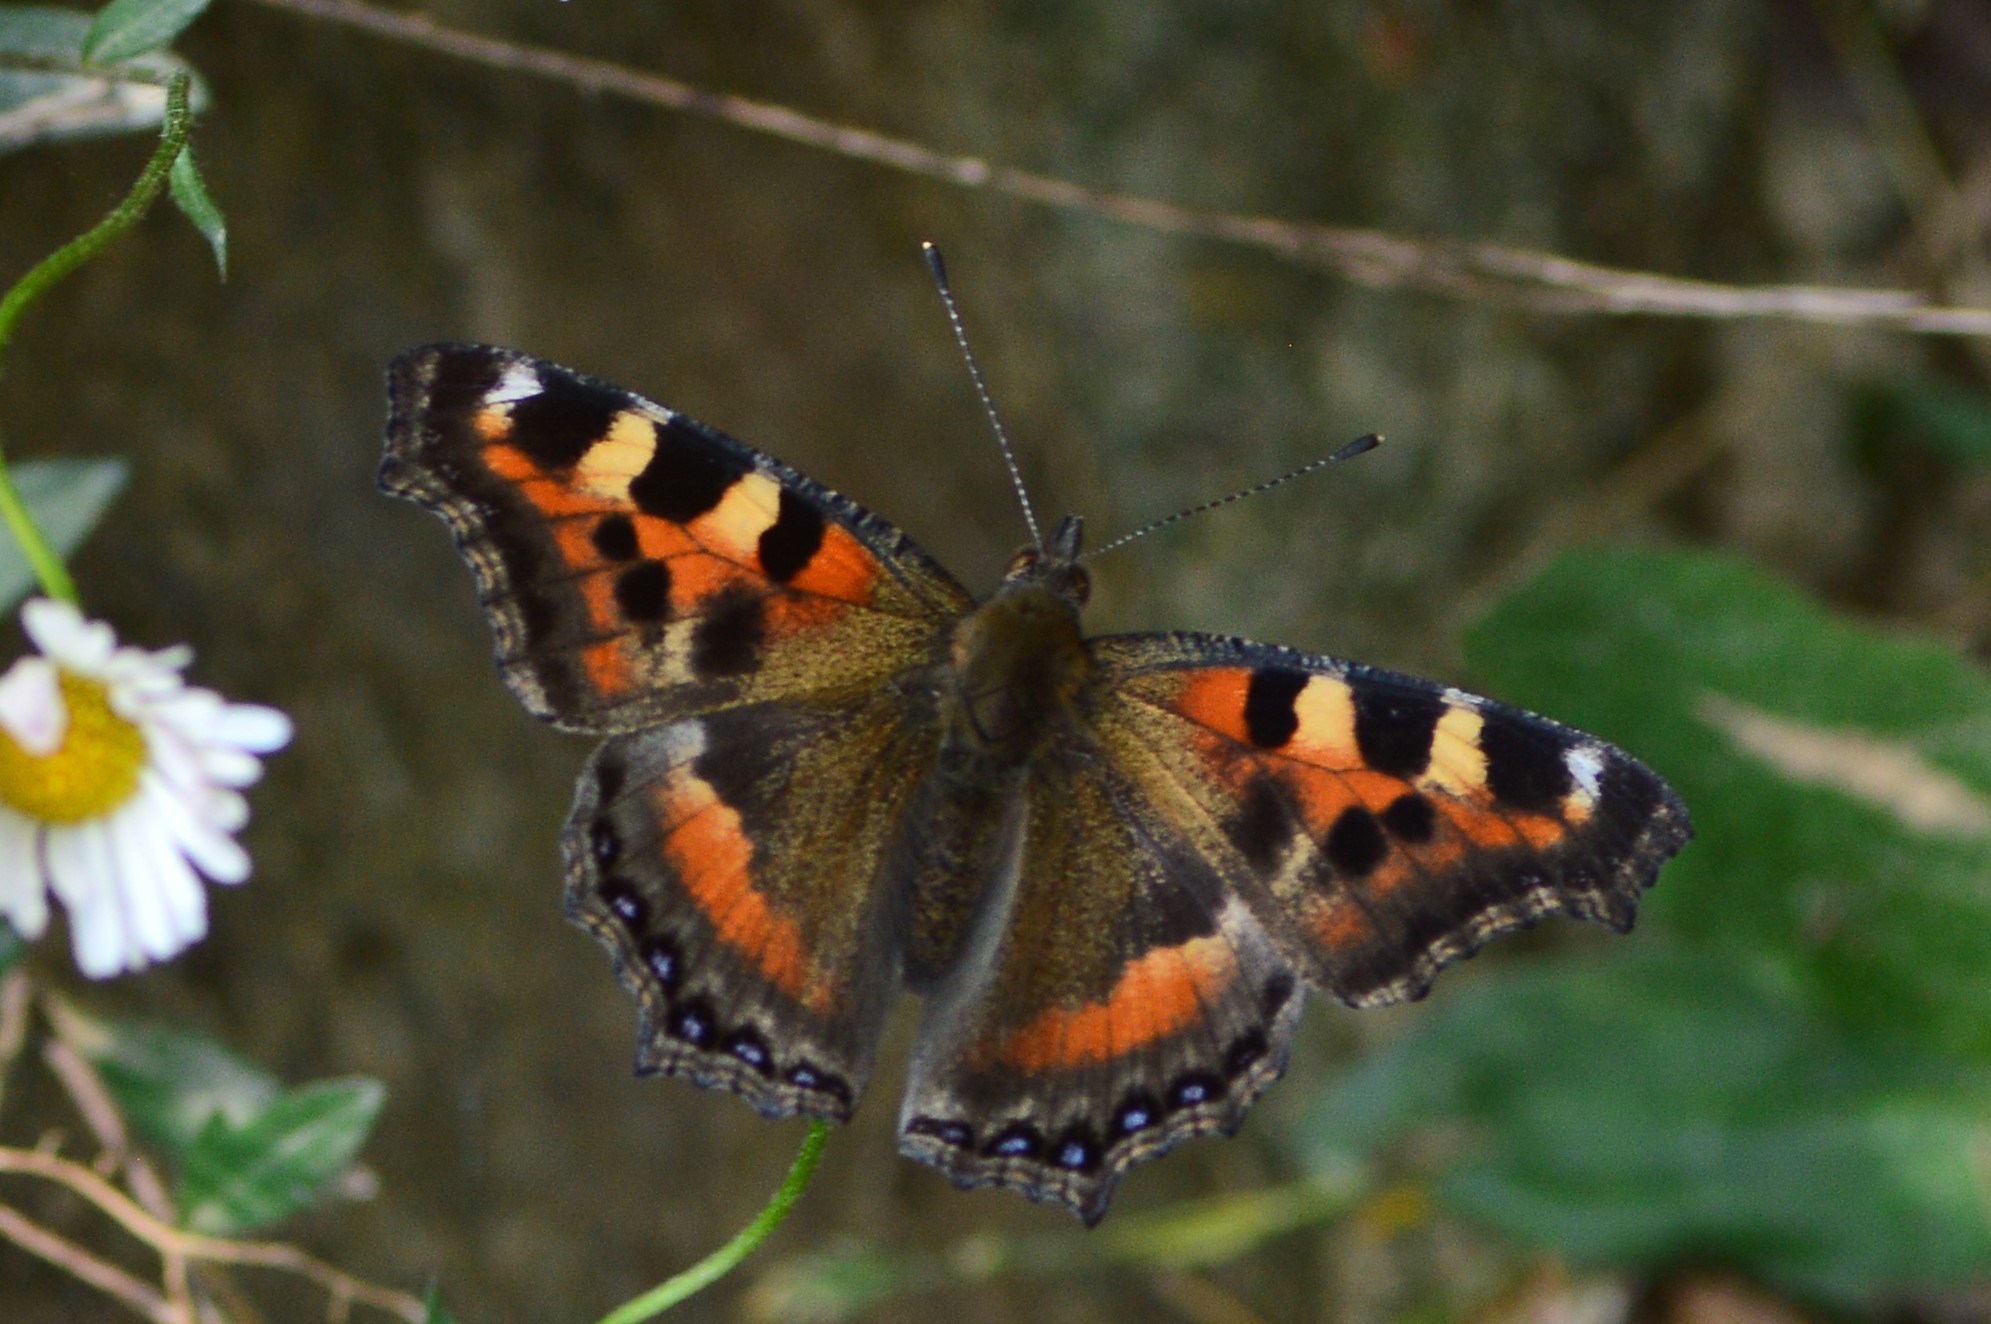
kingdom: Animalia
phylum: Arthropoda
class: Insecta
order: Lepidoptera
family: Nymphalidae
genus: Aglais
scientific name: Aglais caschmirensis
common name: Indian tortoiseshell
